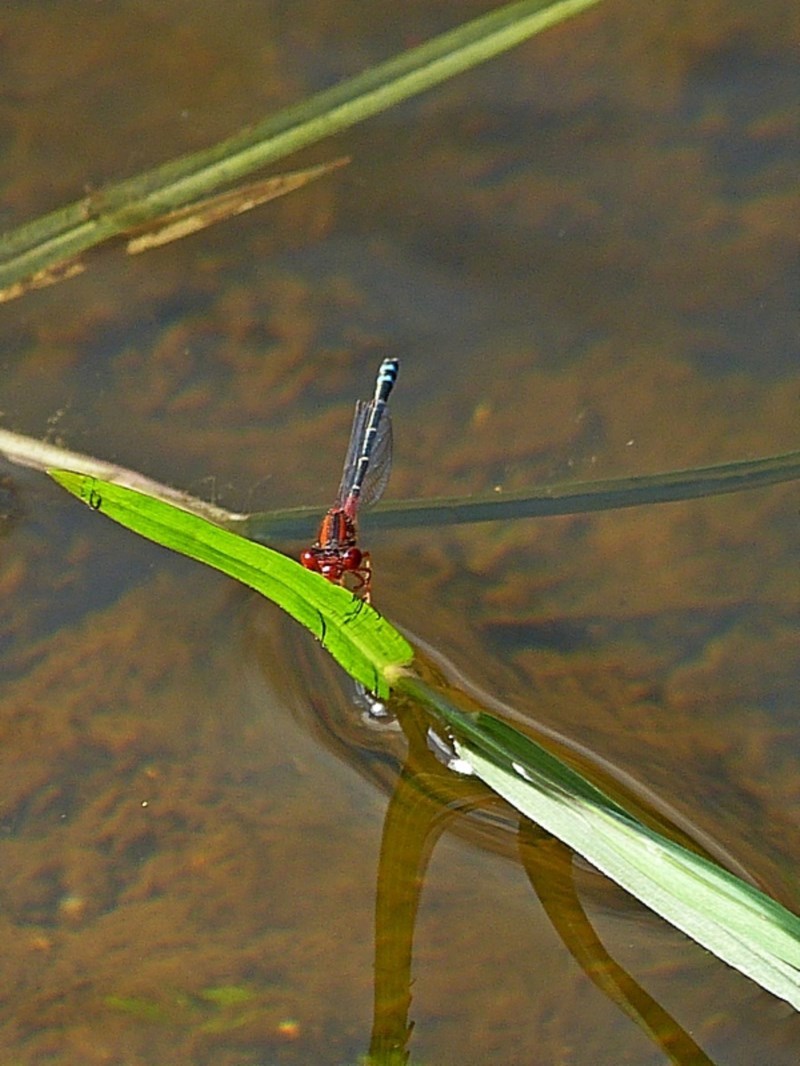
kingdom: Animalia
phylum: Arthropoda
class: Insecta
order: Odonata
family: Coenagrionidae
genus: Xanthagrion
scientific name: Xanthagrion erythroneurum
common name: Red and blue damsel
